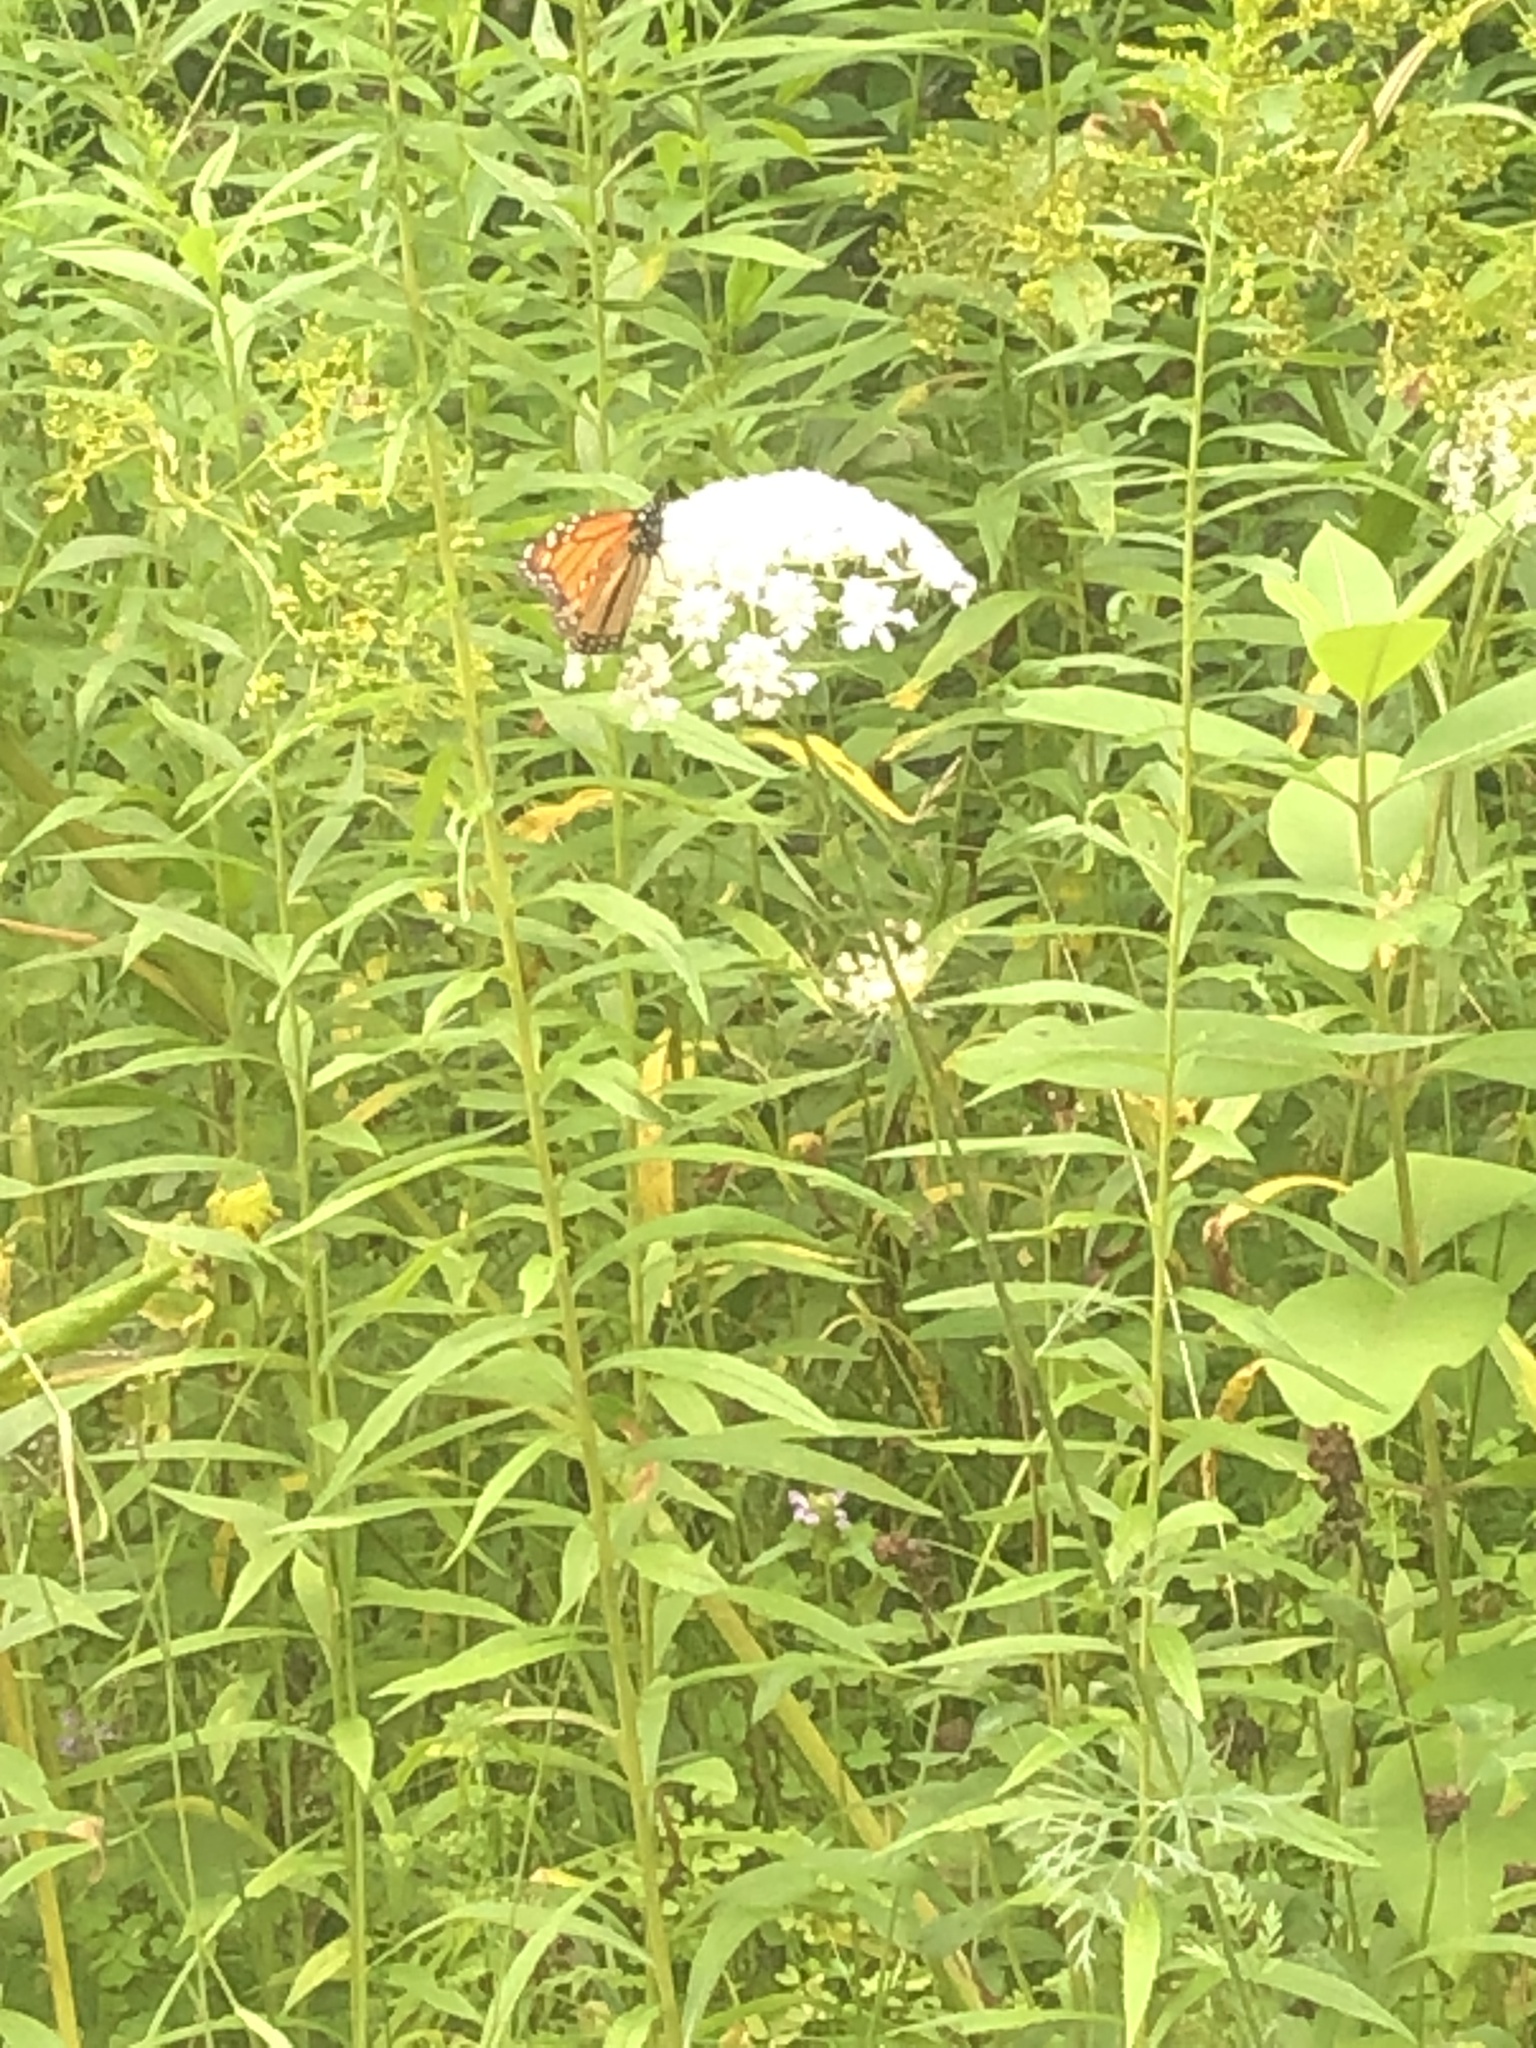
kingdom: Animalia
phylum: Arthropoda
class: Insecta
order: Lepidoptera
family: Nymphalidae
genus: Danaus
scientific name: Danaus plexippus
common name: Monarch
